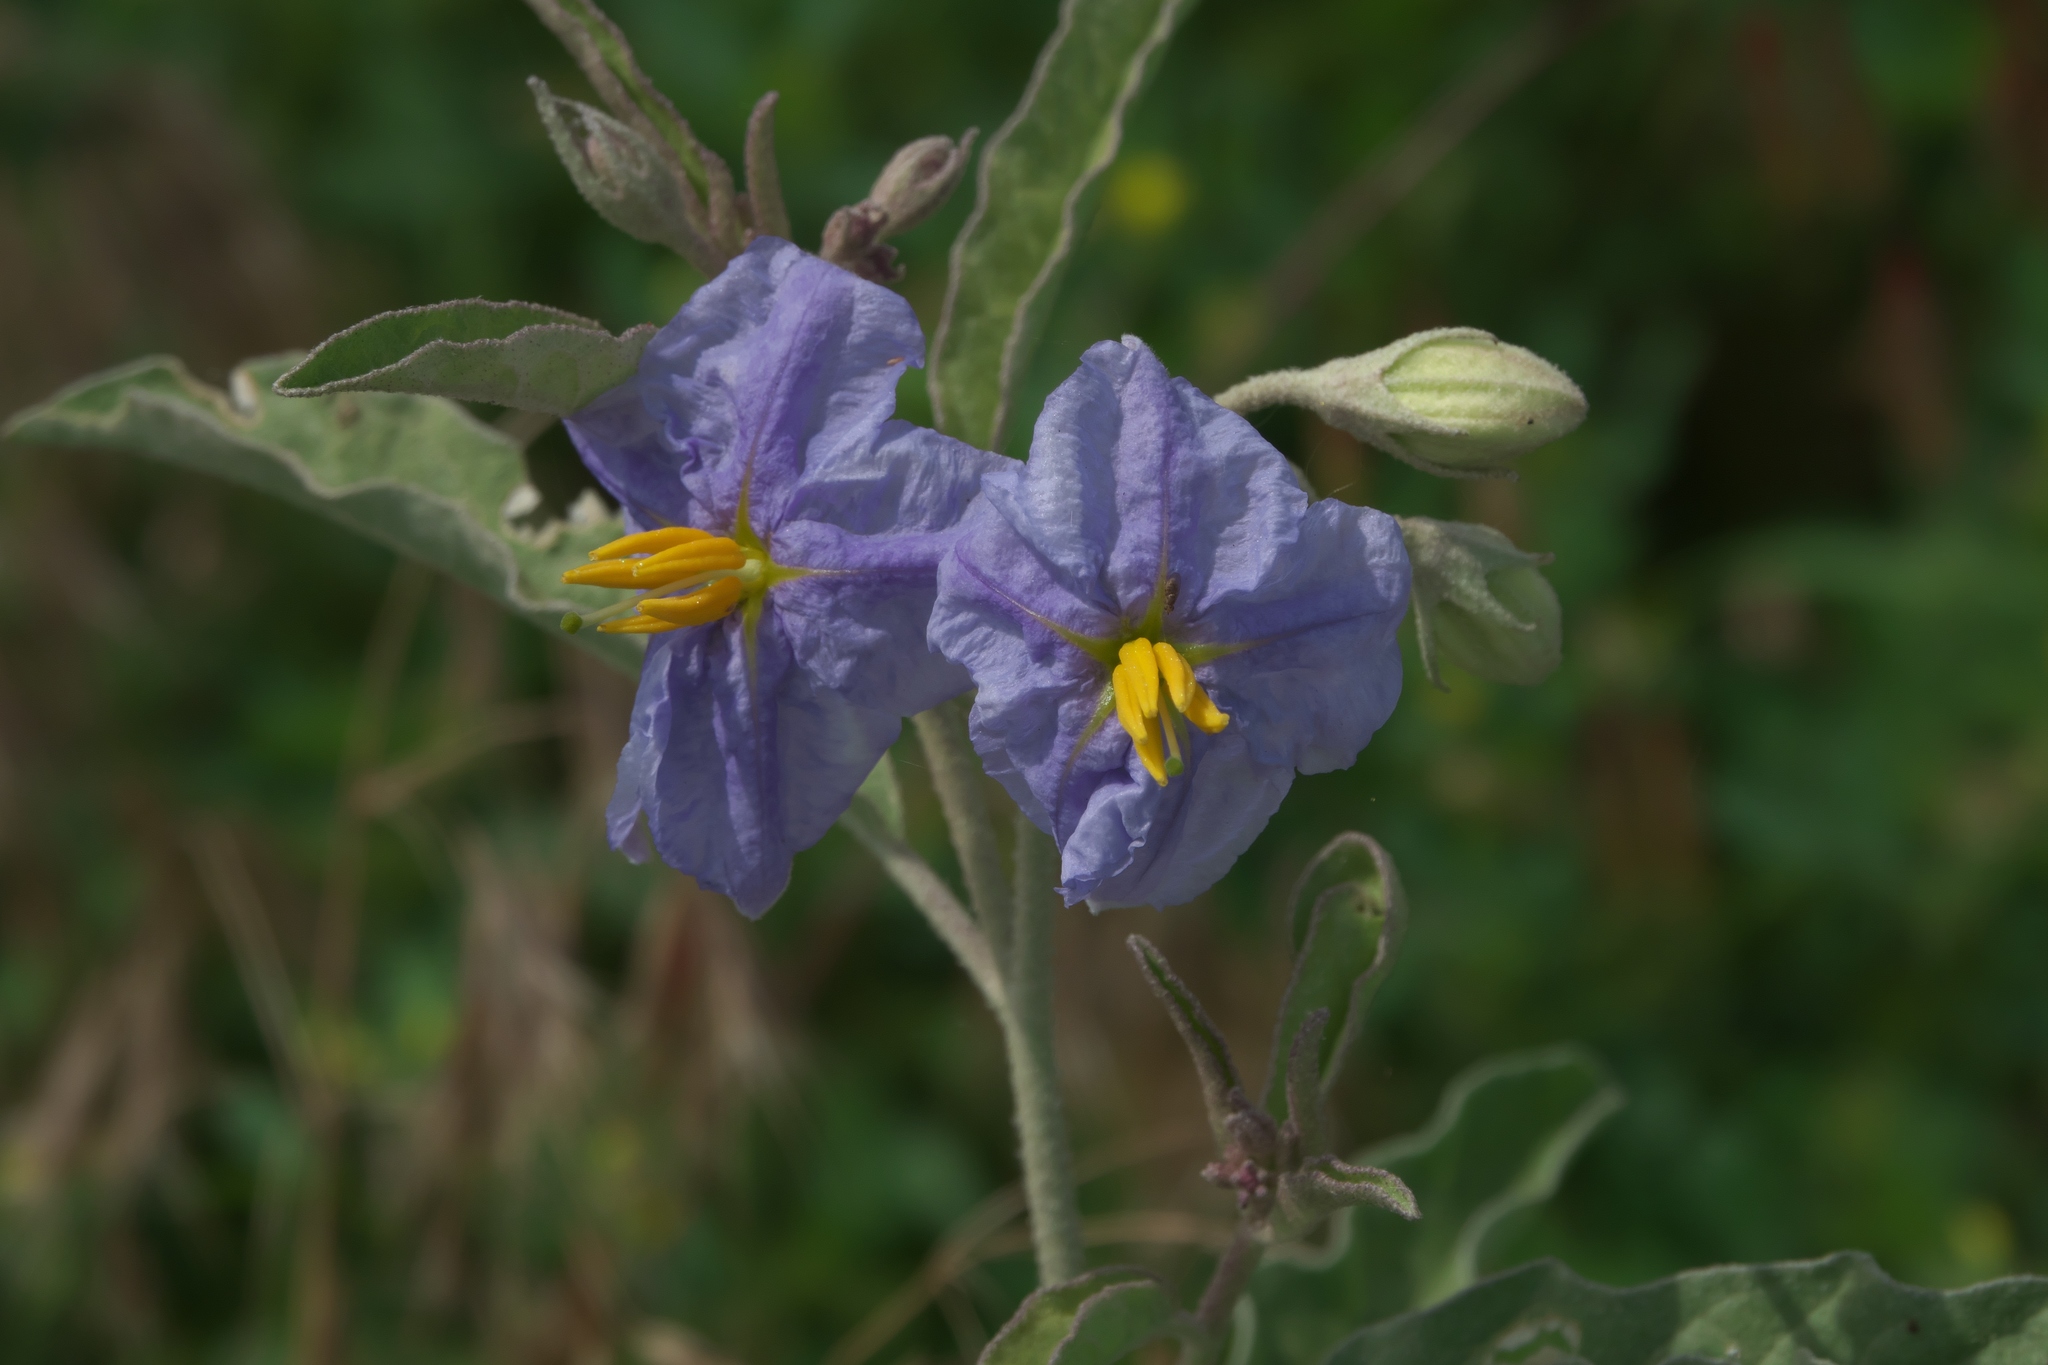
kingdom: Plantae
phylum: Tracheophyta
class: Magnoliopsida
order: Solanales
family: Solanaceae
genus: Solanum
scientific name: Solanum elaeagnifolium
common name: Silverleaf nightshade
